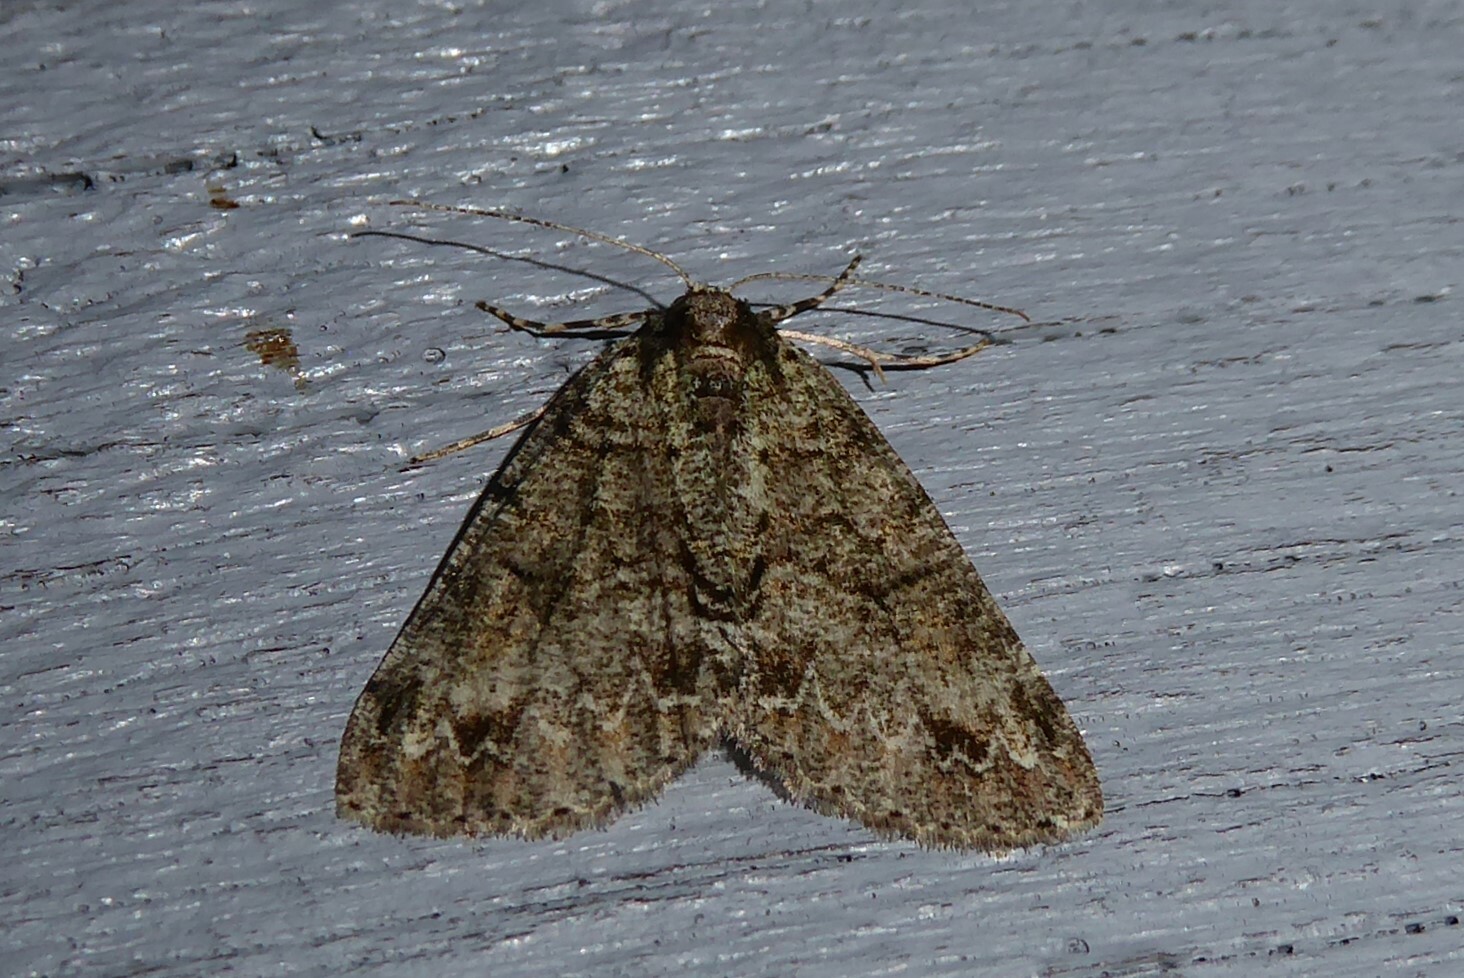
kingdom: Animalia
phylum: Arthropoda
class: Insecta
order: Lepidoptera
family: Geometridae
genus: Pseudocoremia
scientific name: Pseudocoremia suavis
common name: Common forest looper
